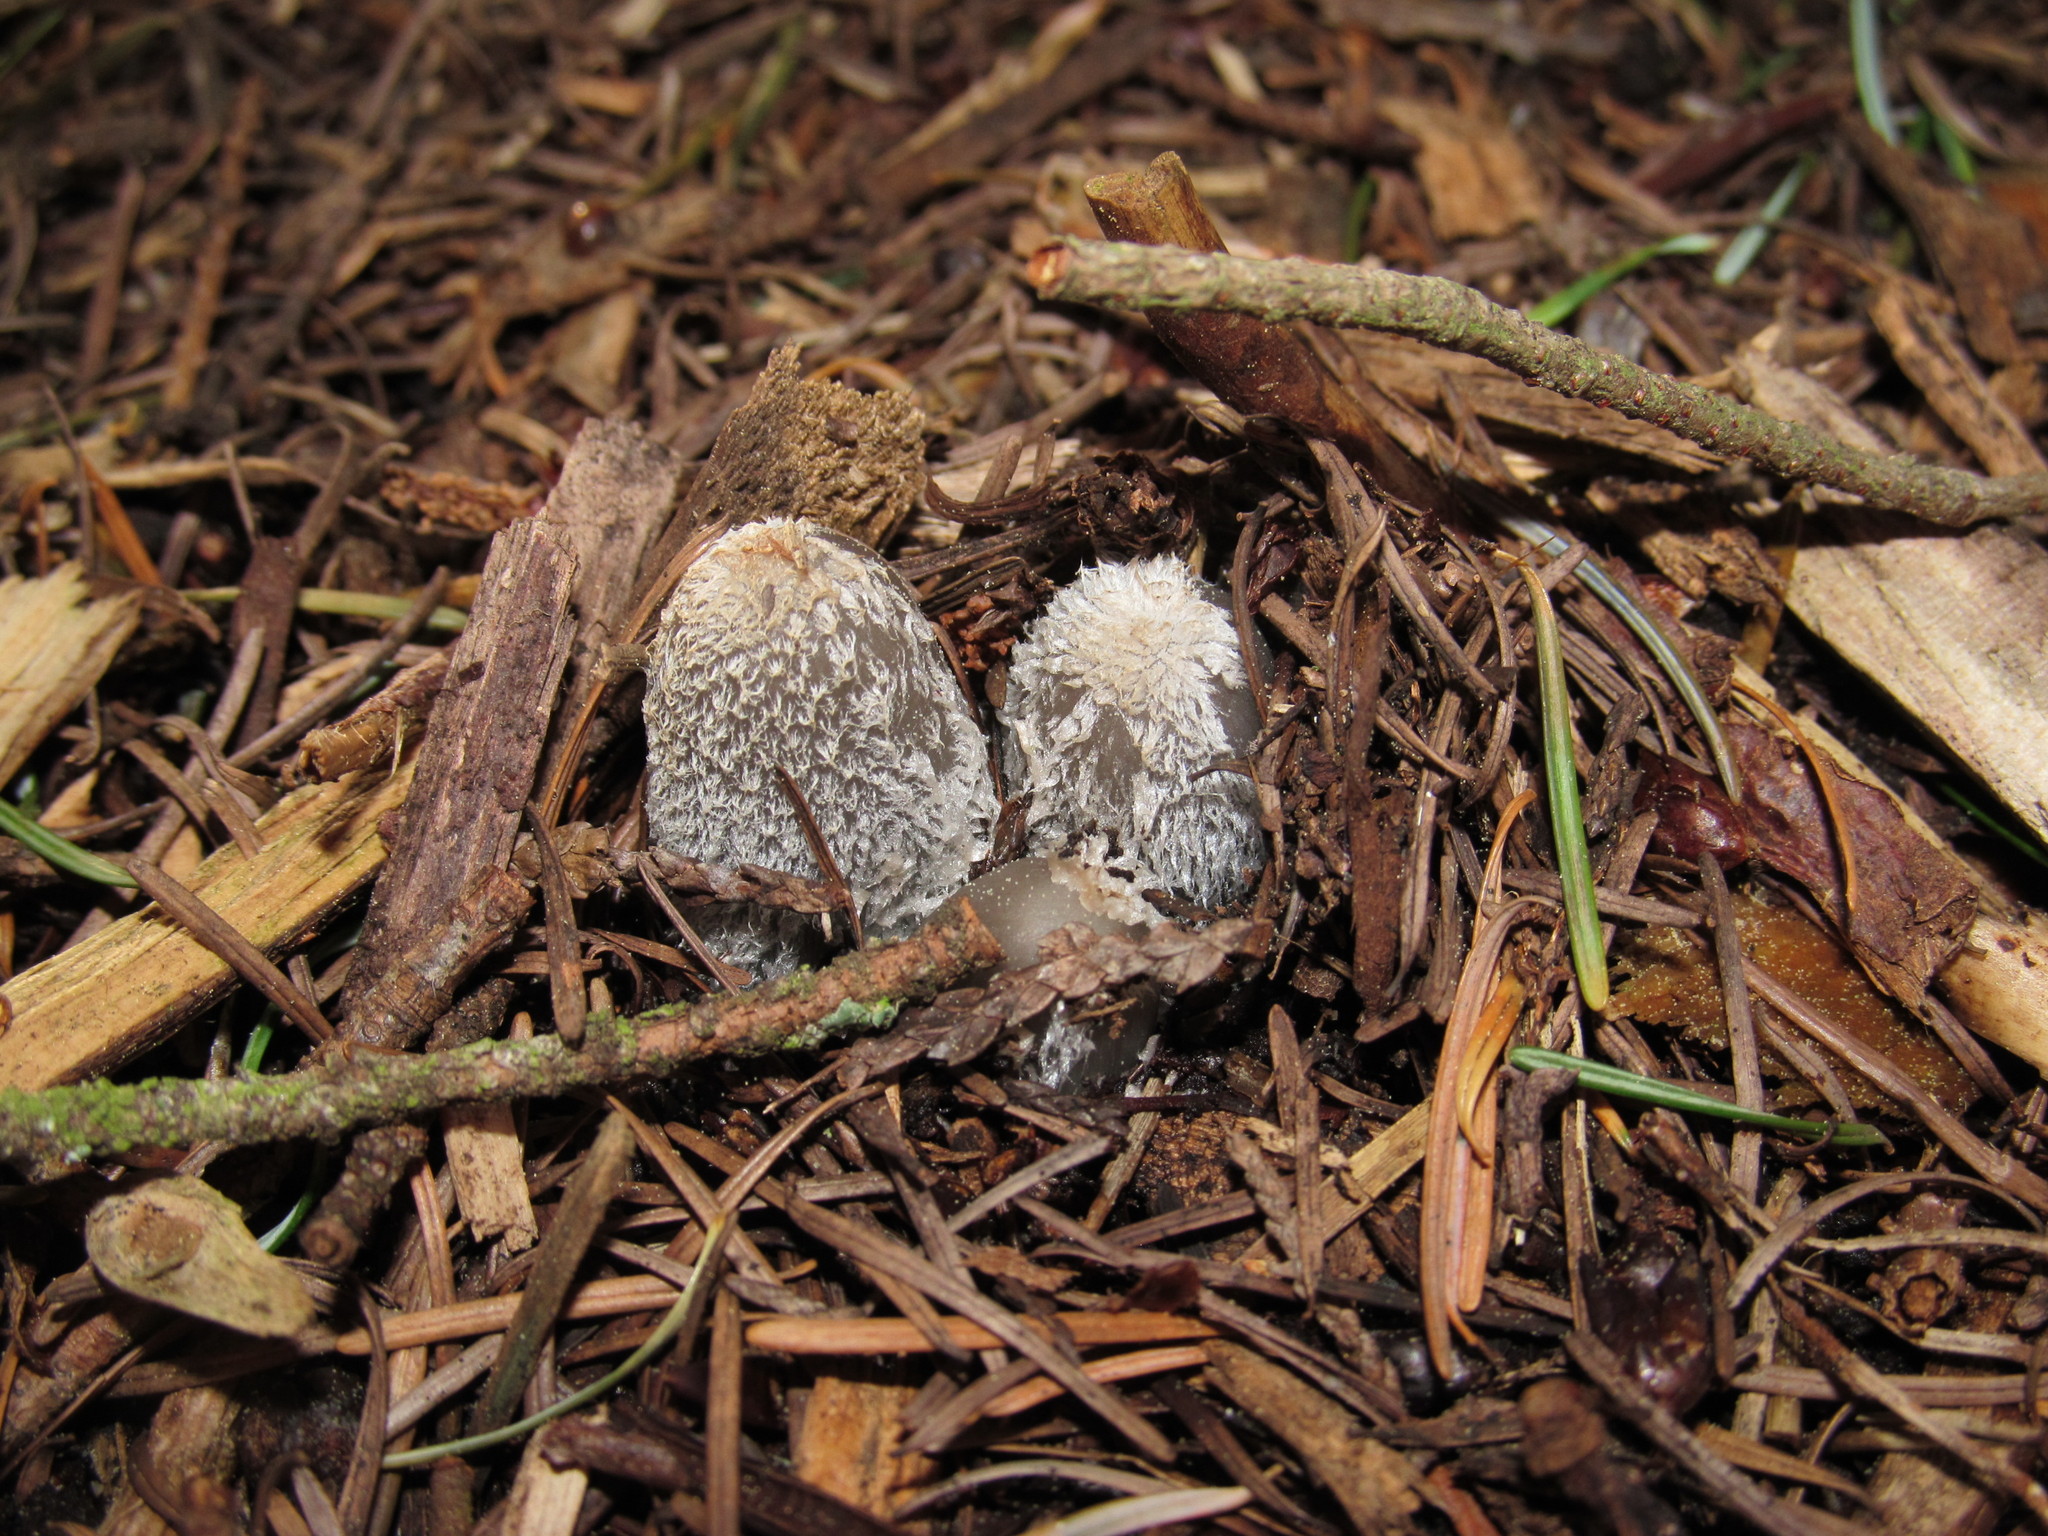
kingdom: Fungi
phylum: Basidiomycota
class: Agaricomycetes
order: Agaricales
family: Psathyrellaceae
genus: Coprinopsis
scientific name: Coprinopsis lagopus
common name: Hare'sfoot inkcap
